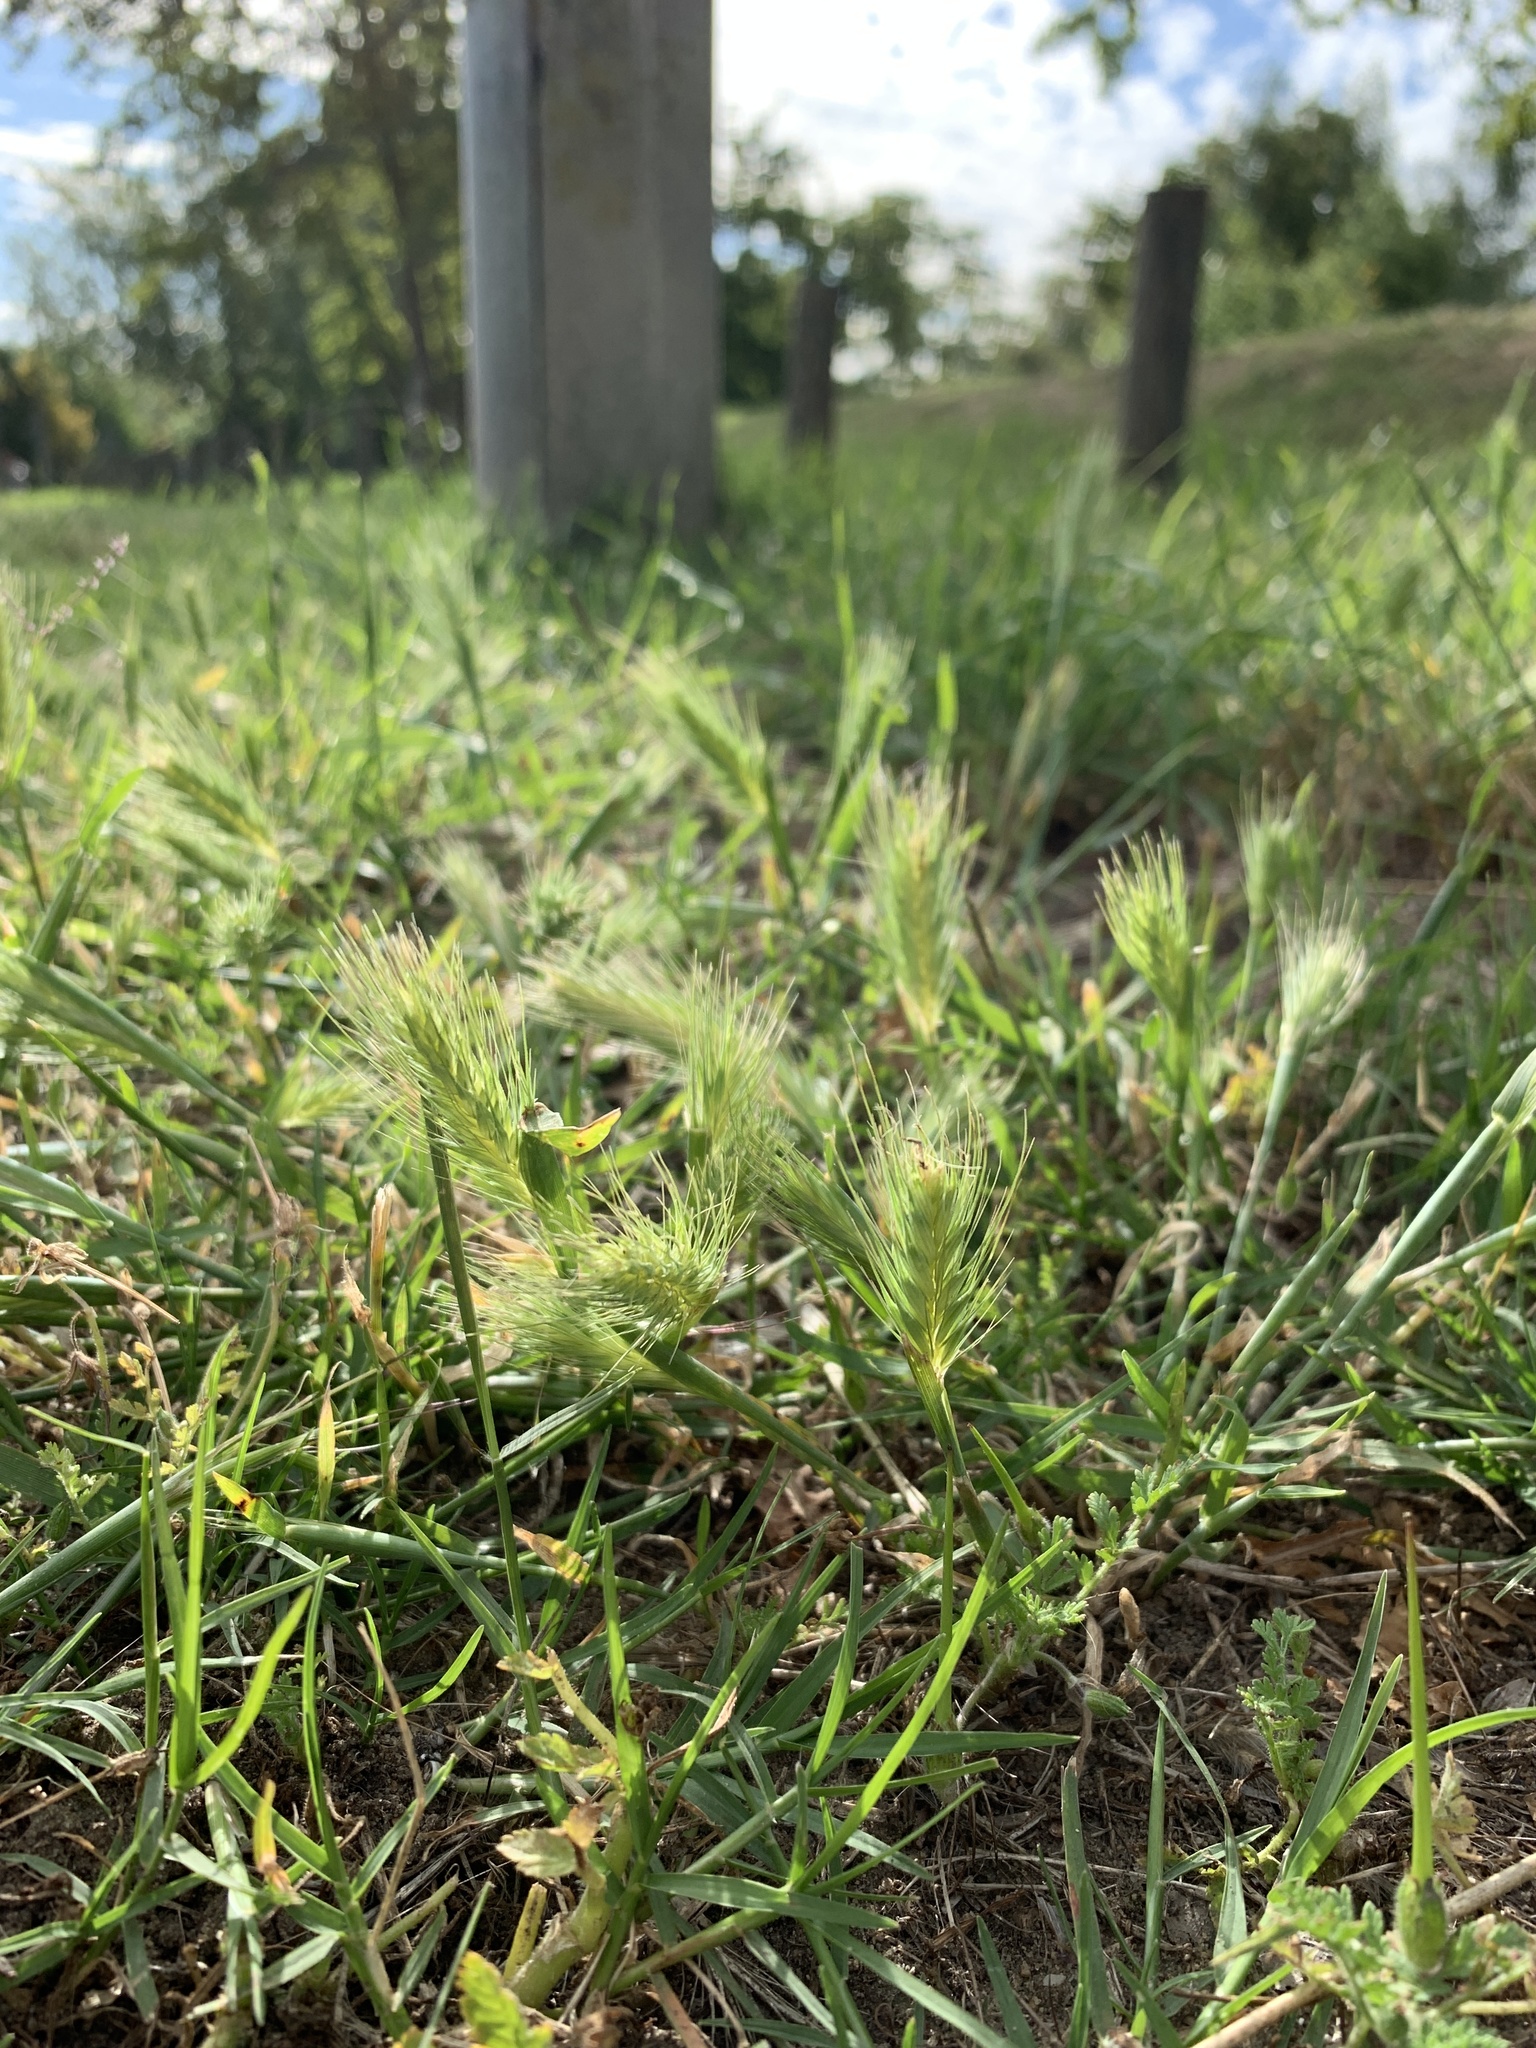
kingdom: Plantae
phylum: Tracheophyta
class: Liliopsida
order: Poales
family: Poaceae
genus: Hordeum
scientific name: Hordeum murinum
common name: Wall barley
